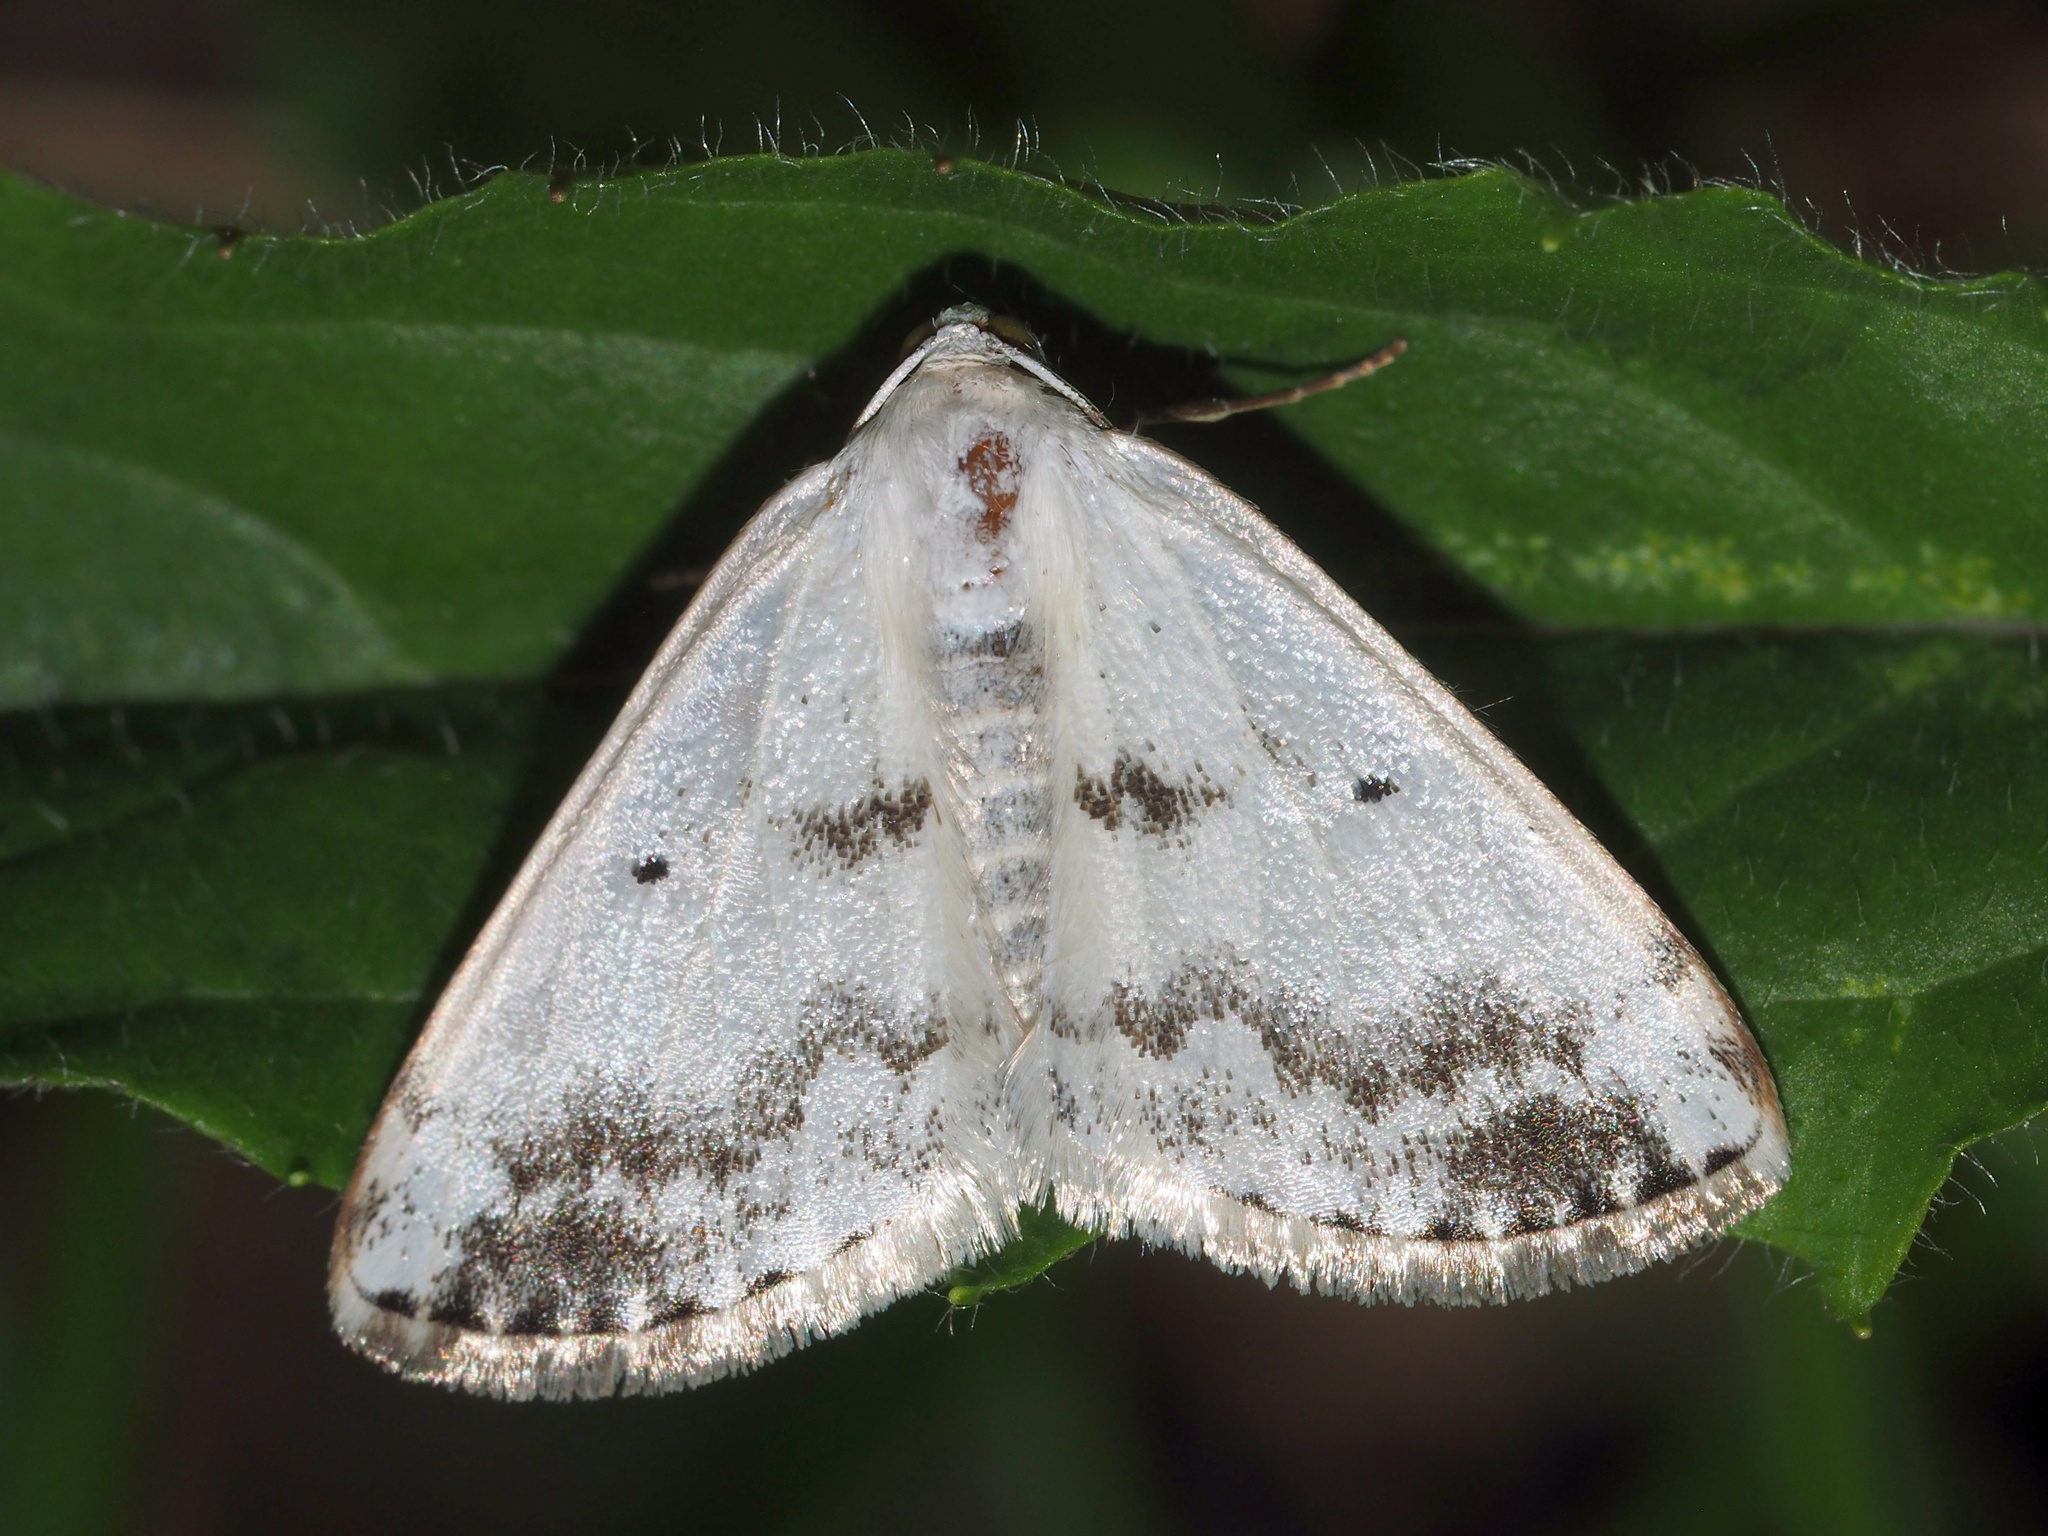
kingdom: Animalia
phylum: Arthropoda
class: Insecta
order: Lepidoptera
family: Geometridae
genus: Lomographa
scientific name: Lomographa temerata
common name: Clouded silver
